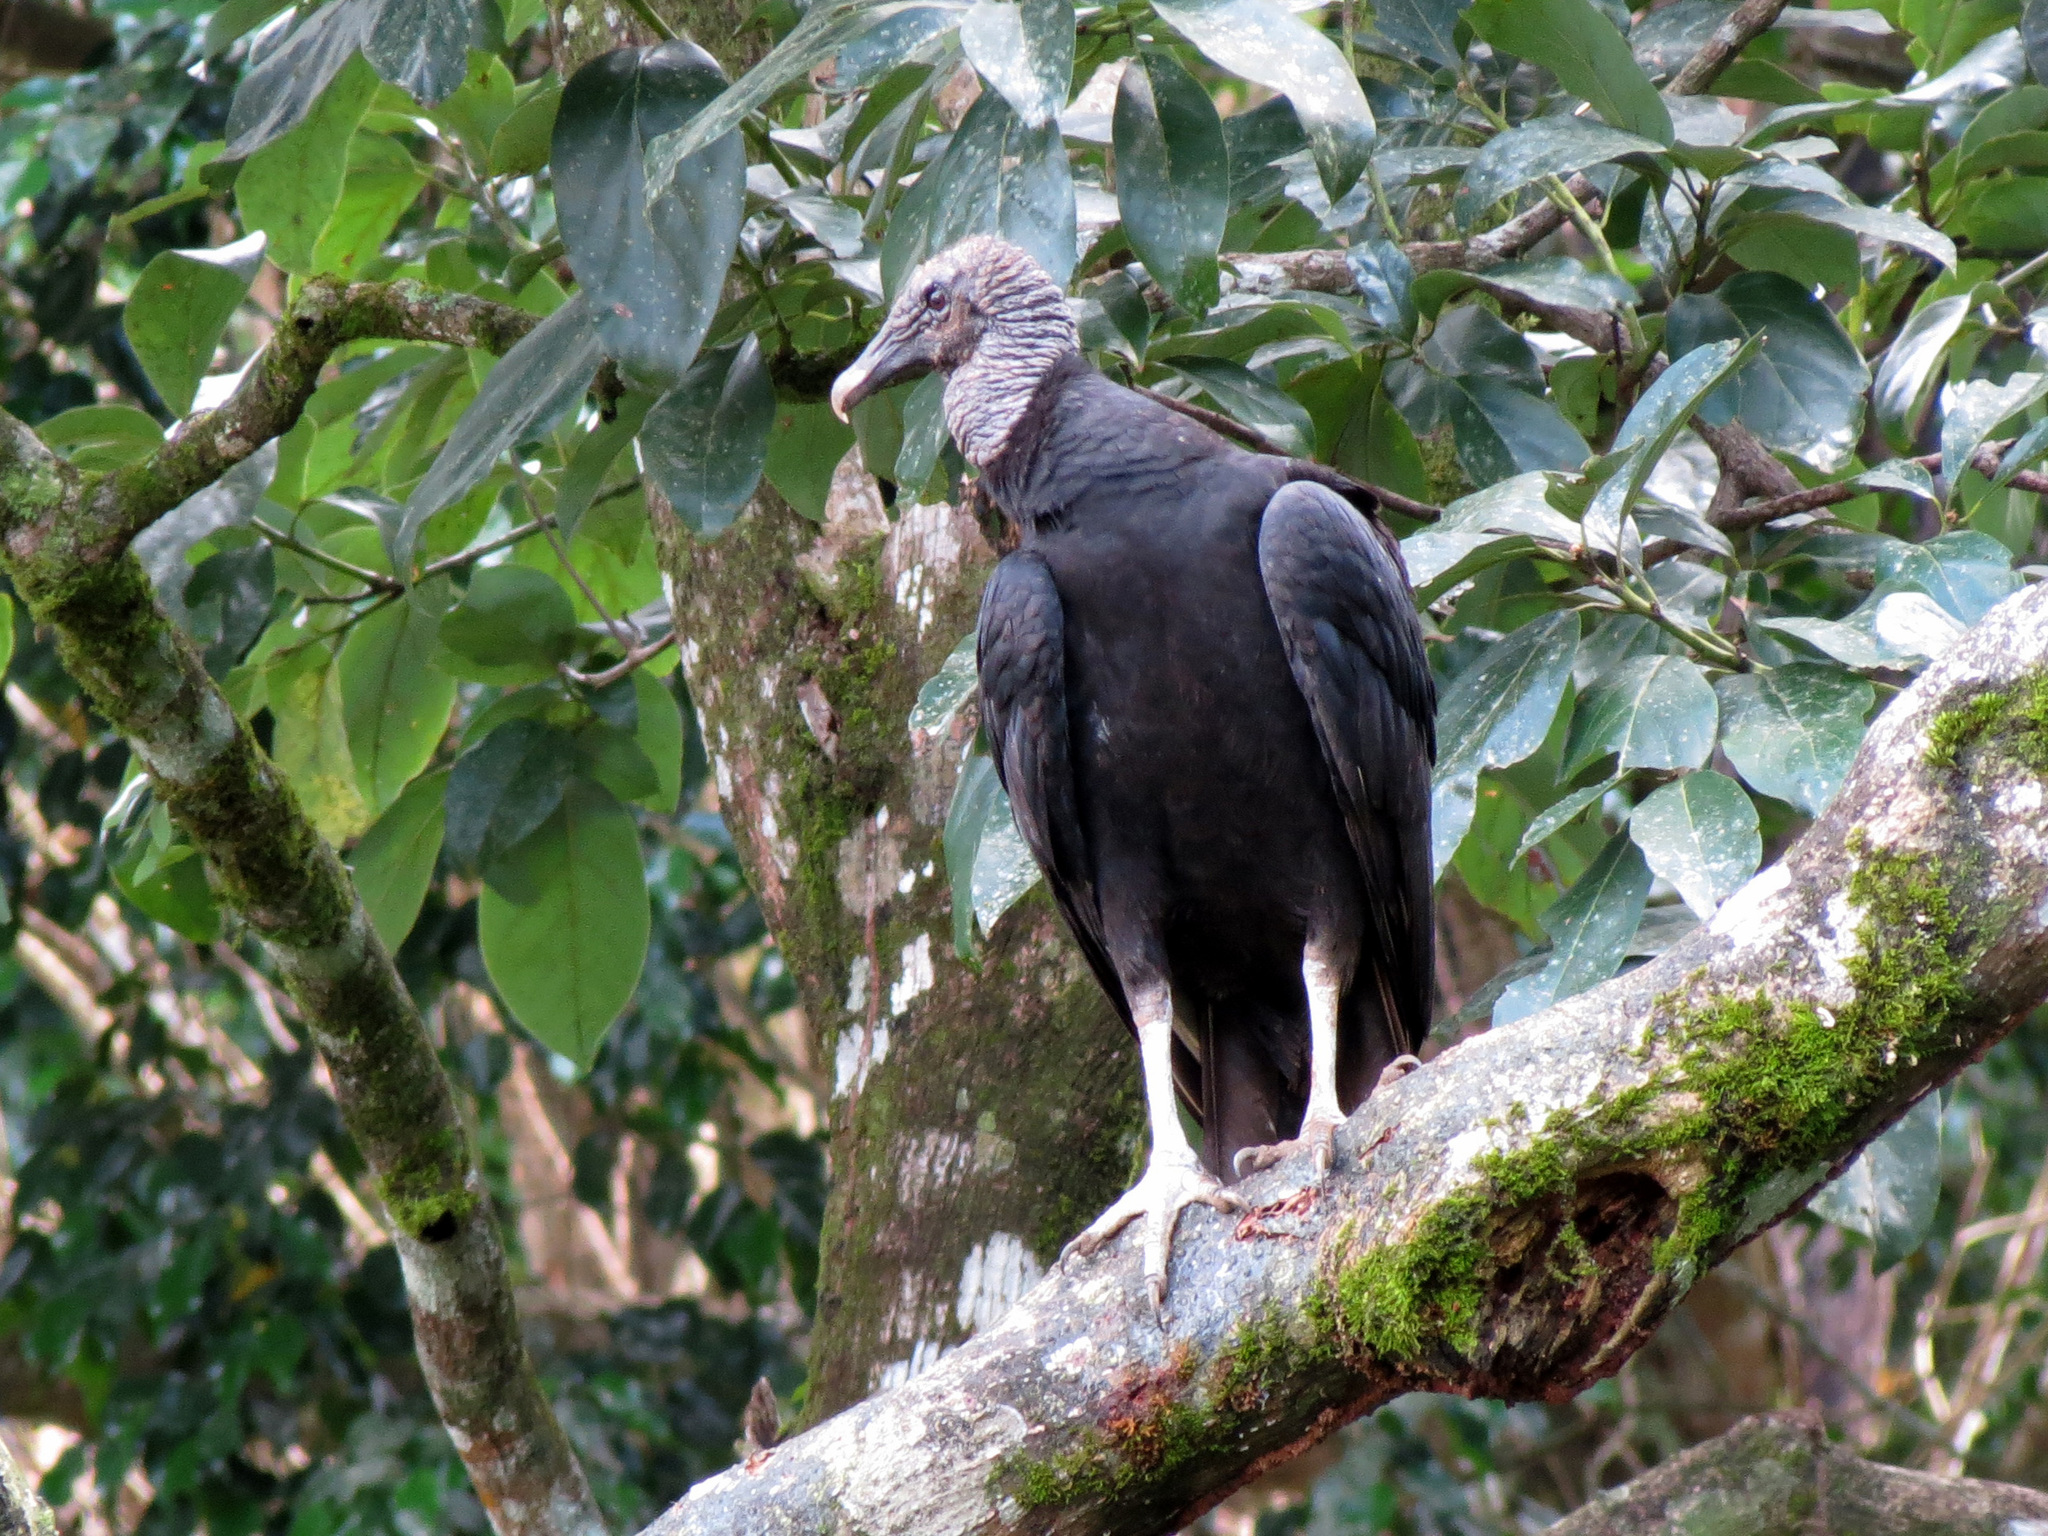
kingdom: Animalia
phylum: Chordata
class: Aves
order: Accipitriformes
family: Cathartidae
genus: Coragyps
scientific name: Coragyps atratus
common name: Black vulture
